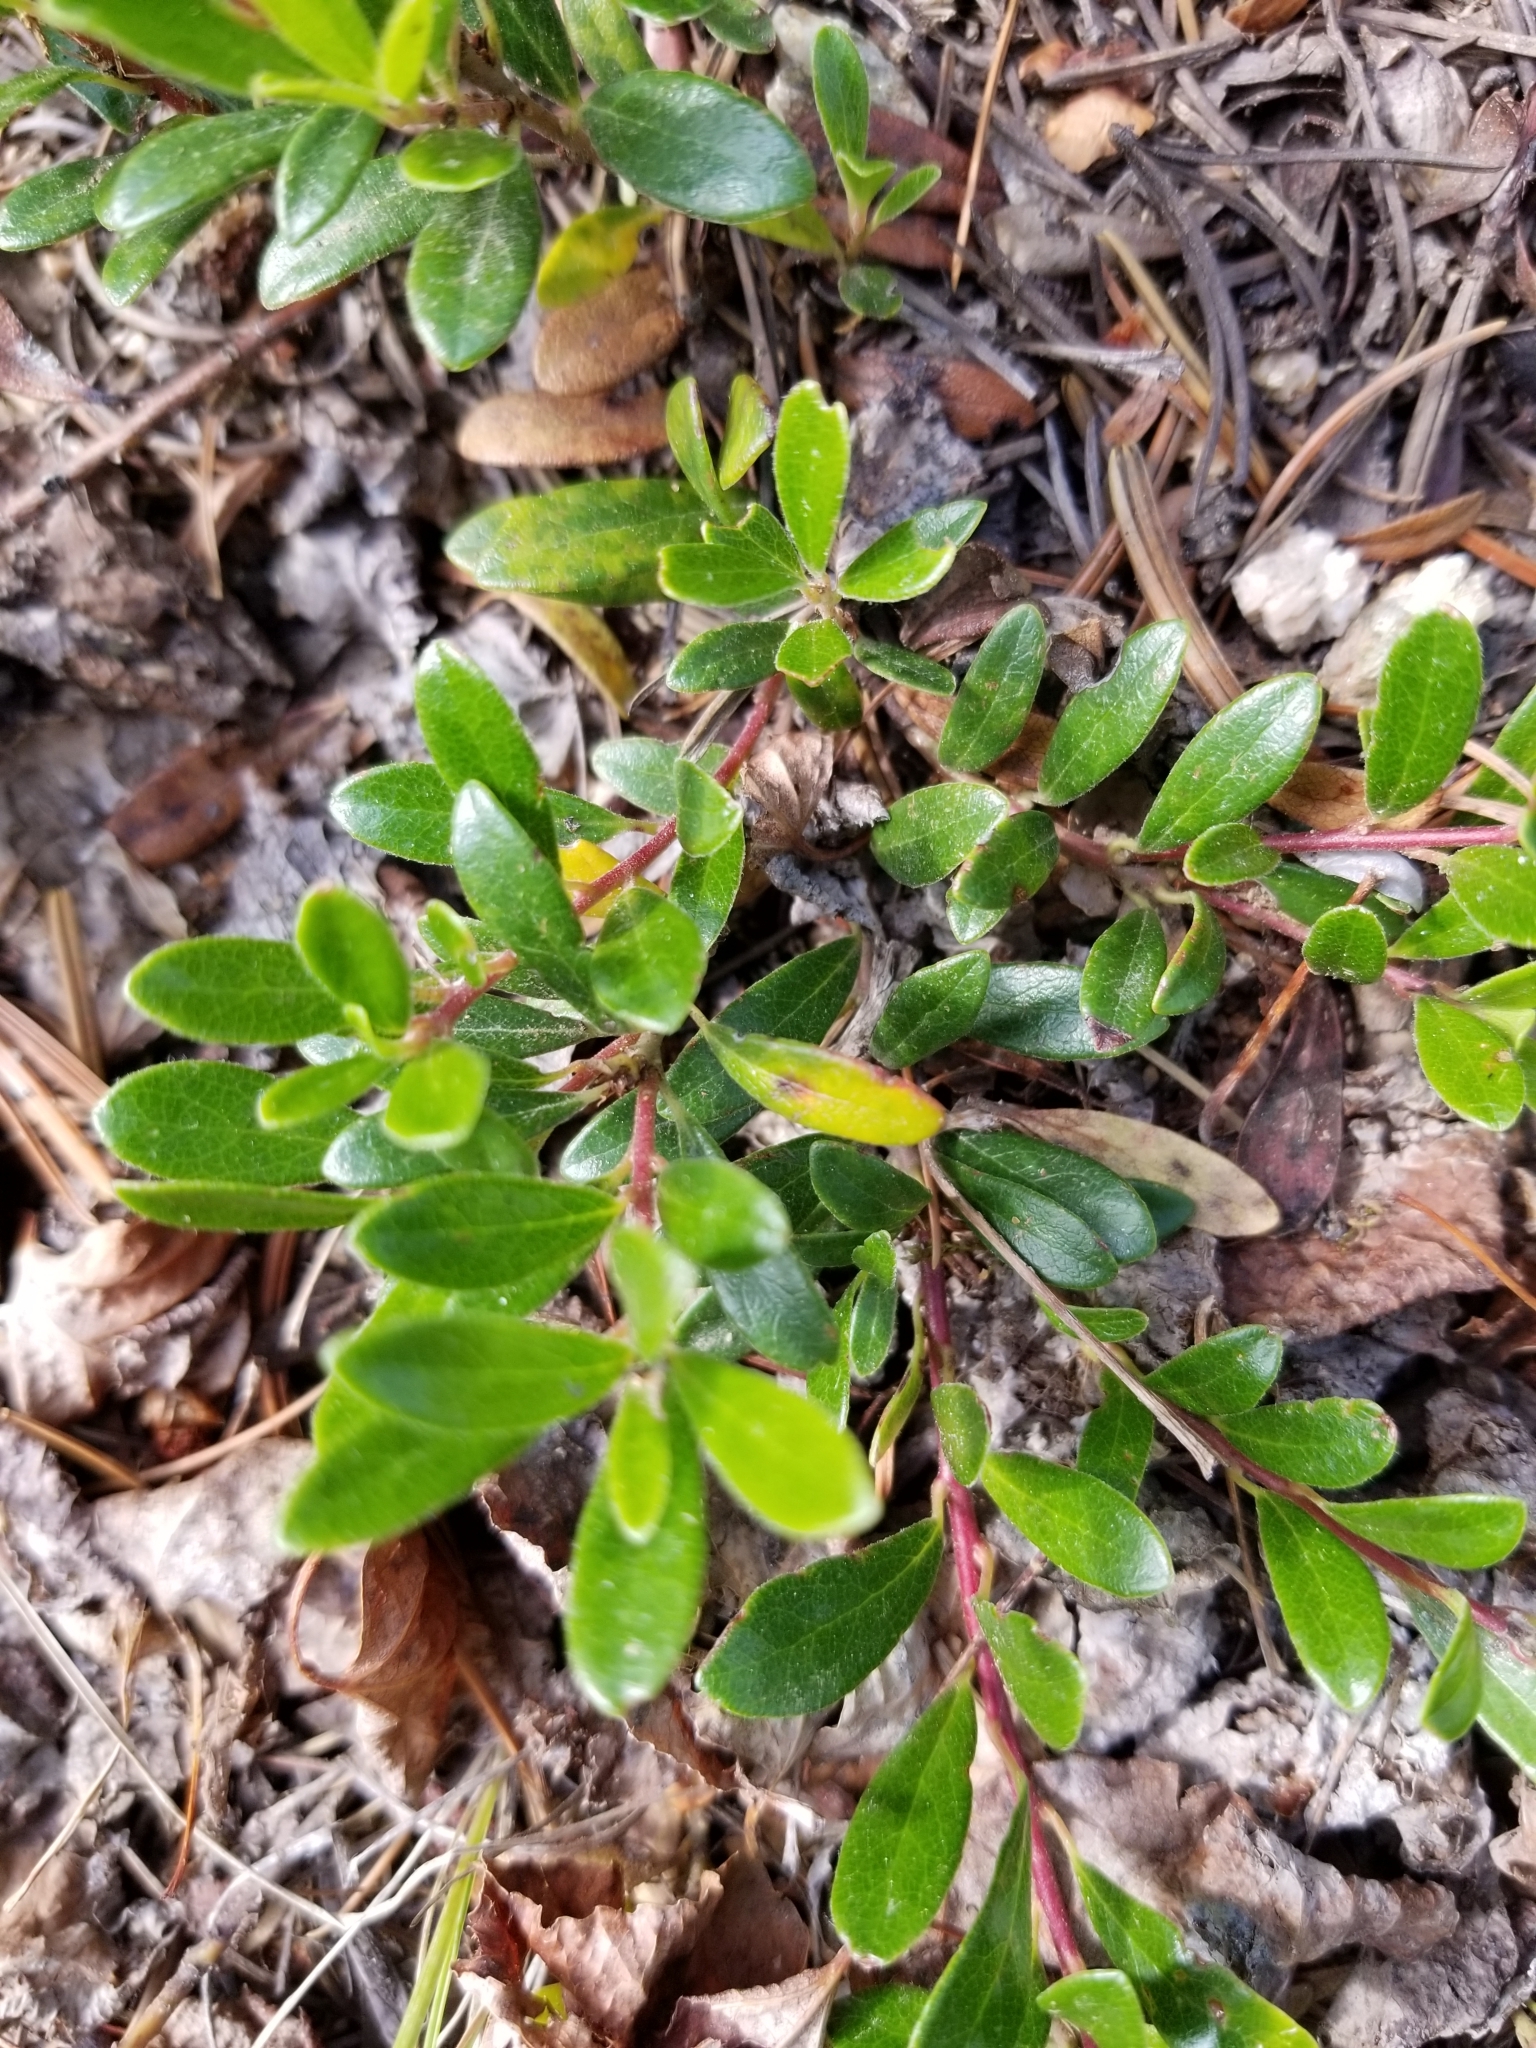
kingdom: Plantae
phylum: Tracheophyta
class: Magnoliopsida
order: Ericales
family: Ericaceae
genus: Arctostaphylos
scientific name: Arctostaphylos uva-ursi
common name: Bearberry
